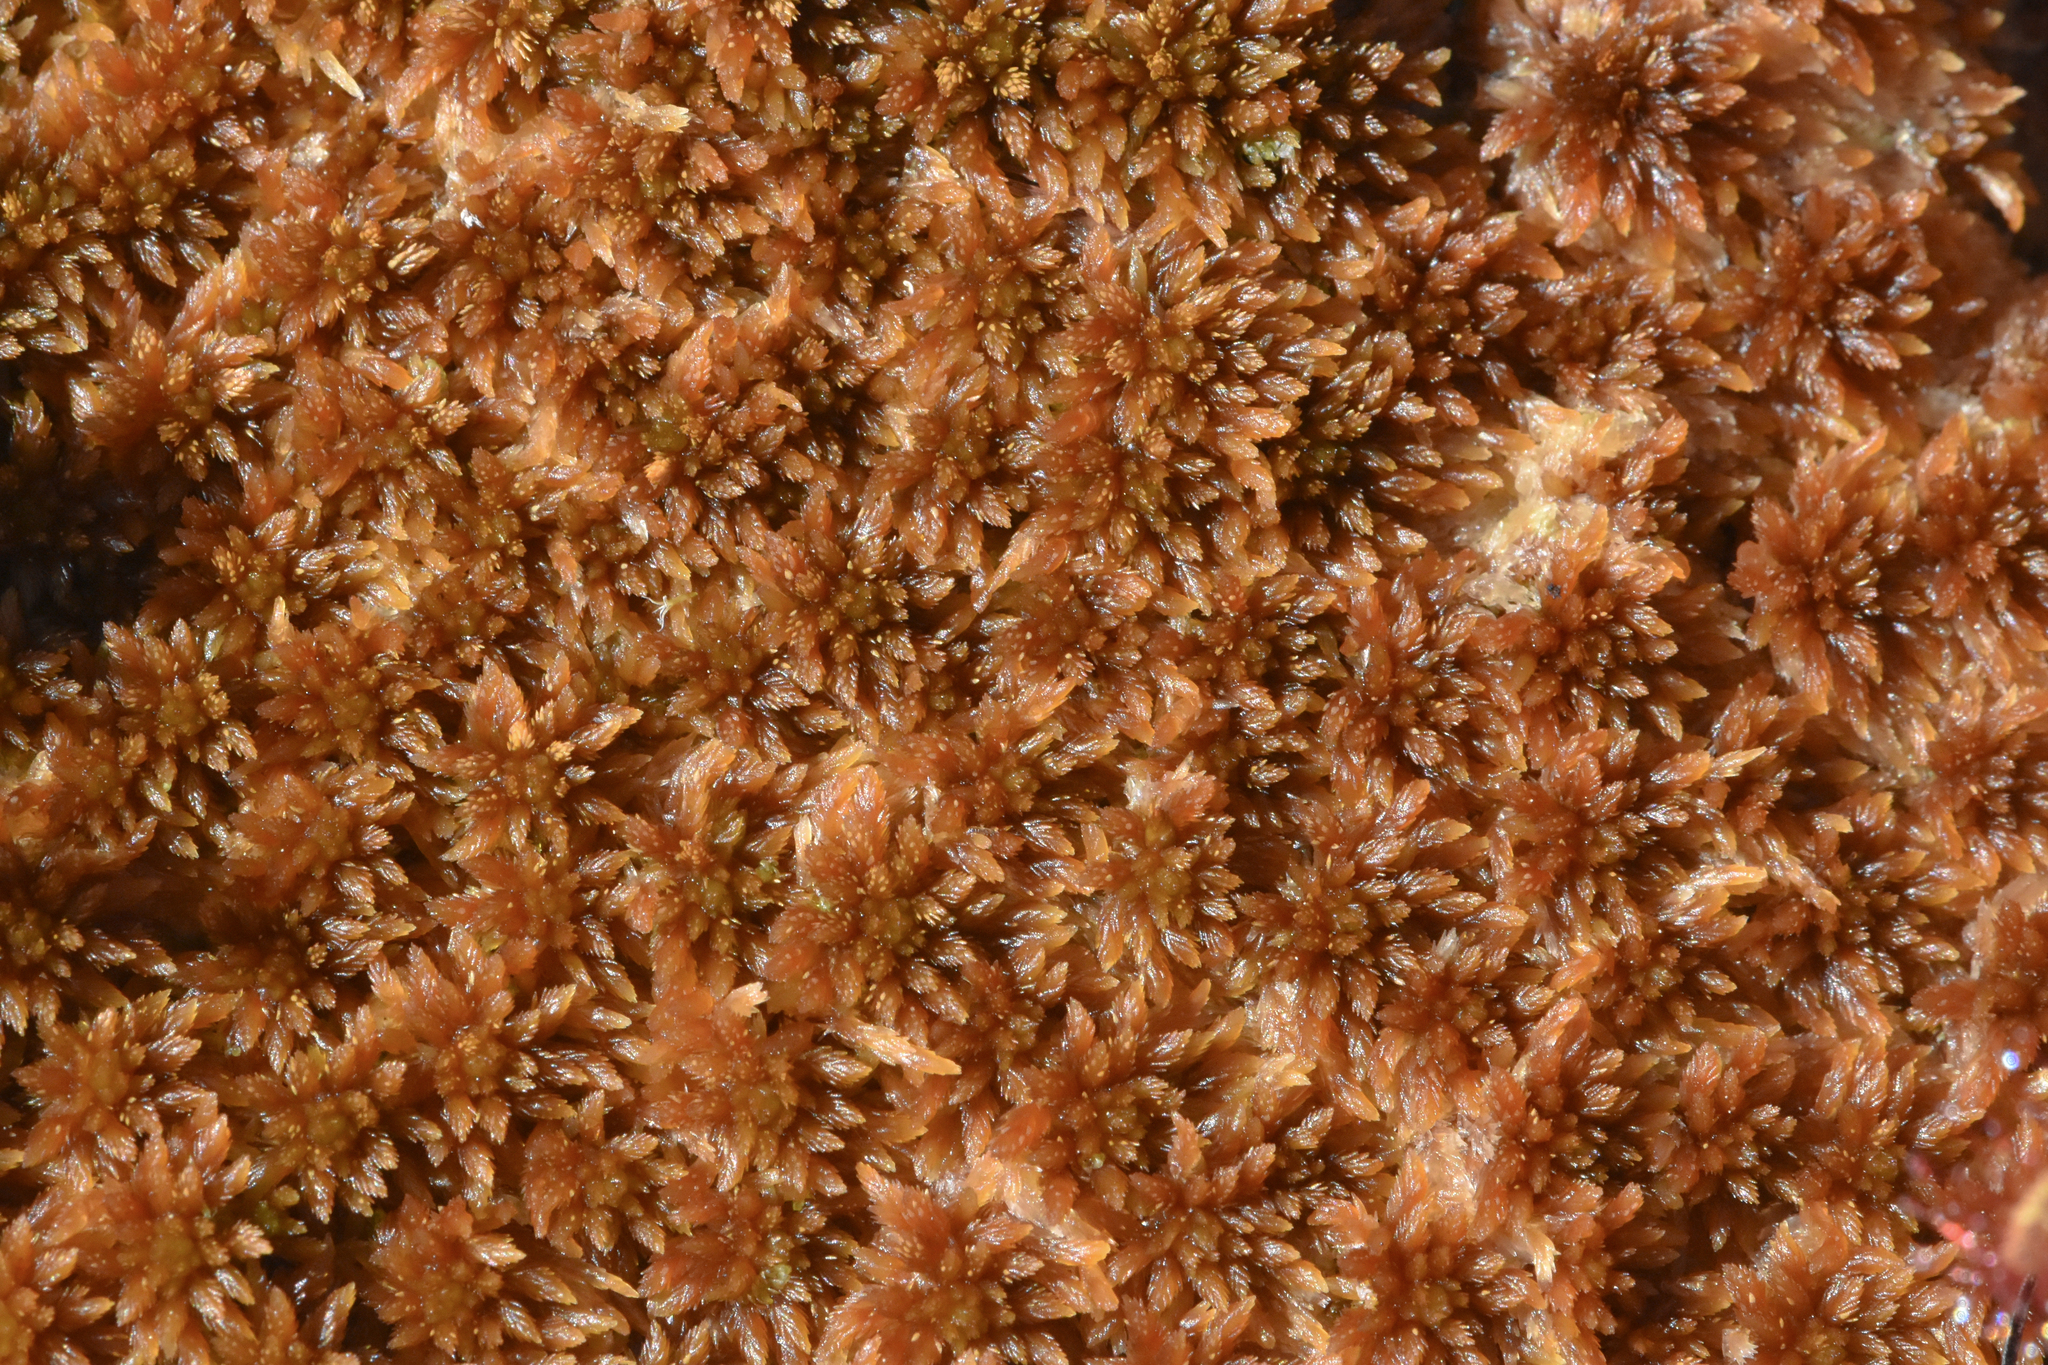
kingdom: Plantae
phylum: Bryophyta
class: Sphagnopsida
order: Sphagnales
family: Sphagnaceae
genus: Sphagnum
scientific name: Sphagnum fuscum
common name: Brown peat moss
